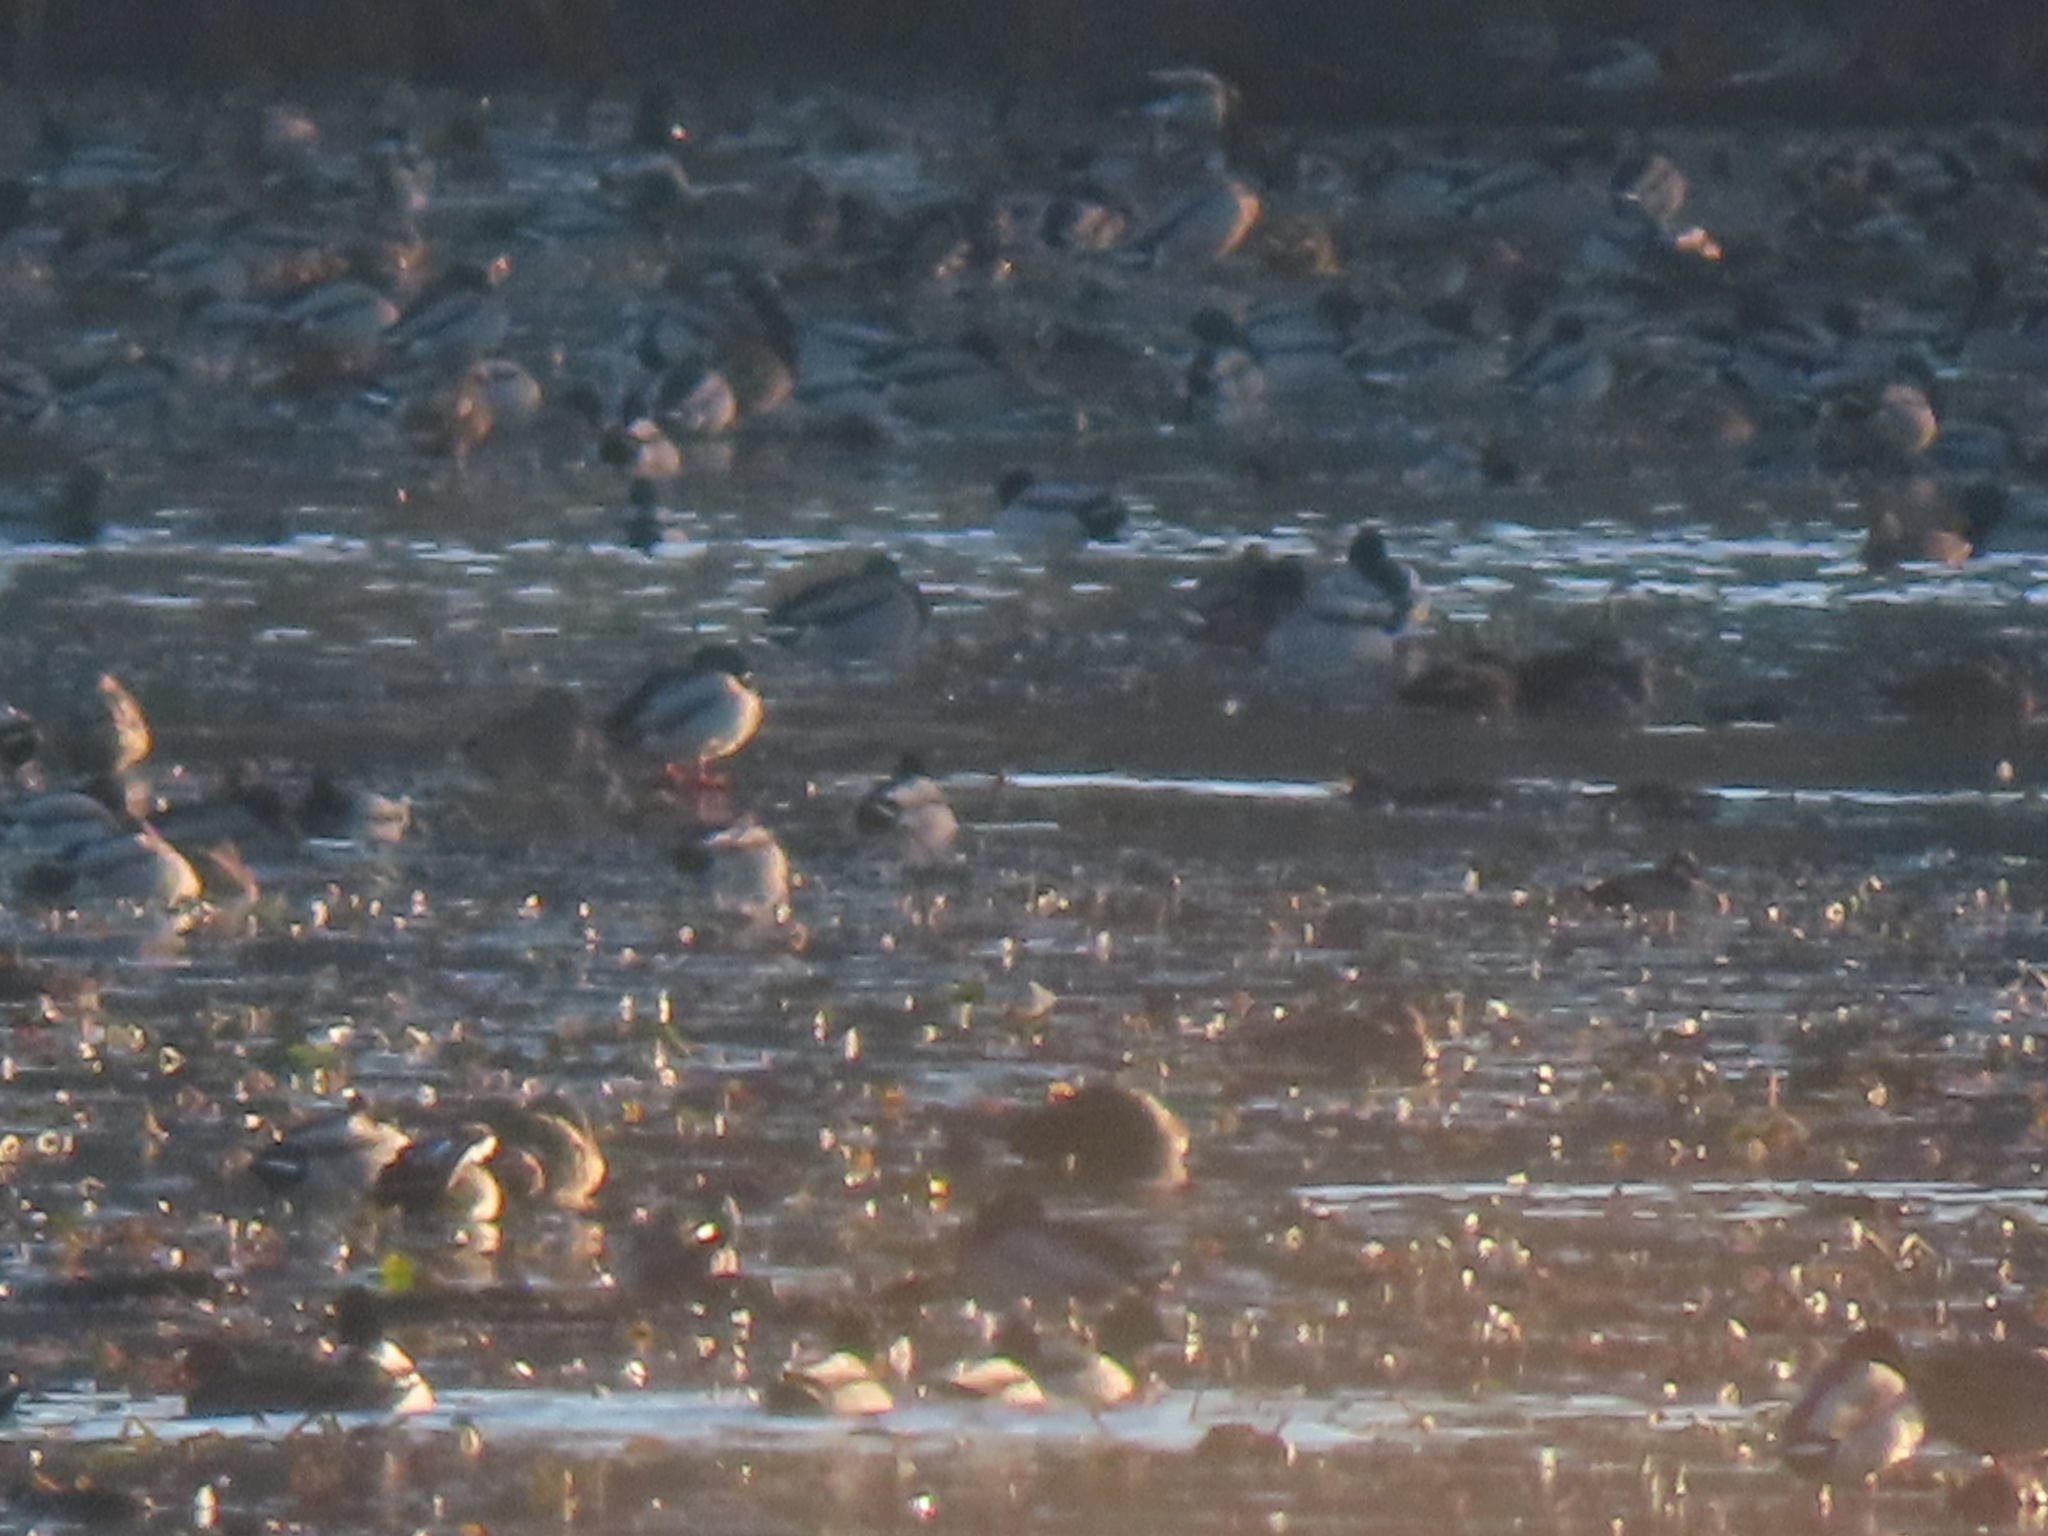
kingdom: Animalia
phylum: Chordata
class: Aves
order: Anseriformes
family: Anatidae
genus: Anas
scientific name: Anas platyrhynchos
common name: Mallard
